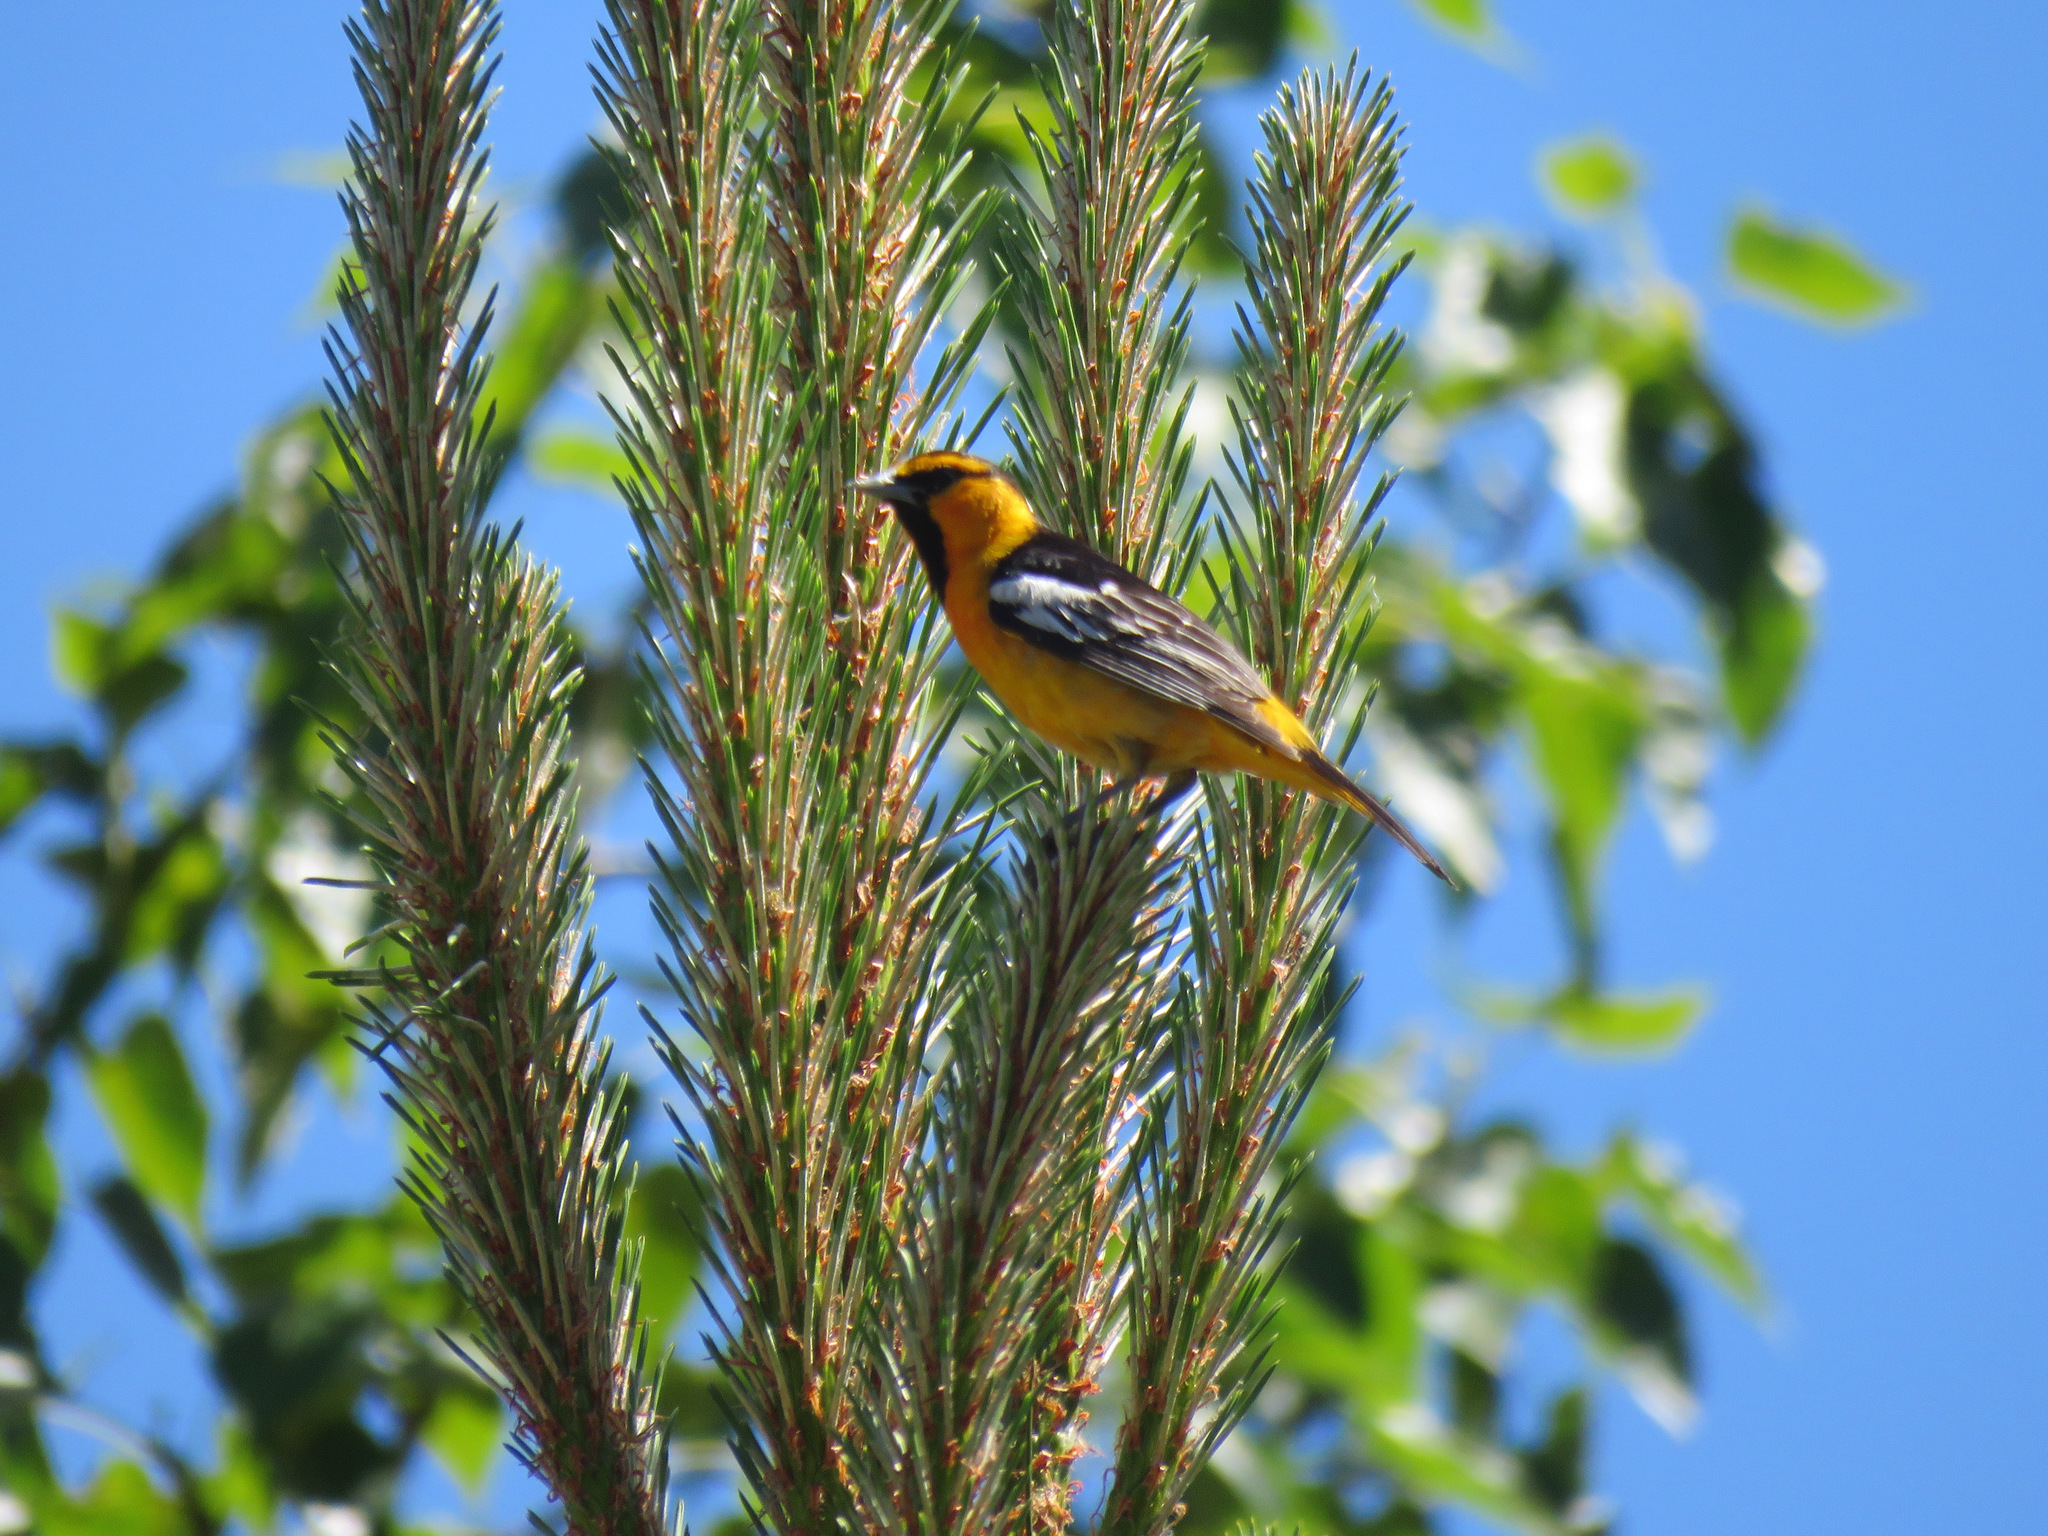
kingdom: Animalia
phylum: Chordata
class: Aves
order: Passeriformes
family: Icteridae
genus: Icterus
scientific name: Icterus bullockii
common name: Bullock's oriole
